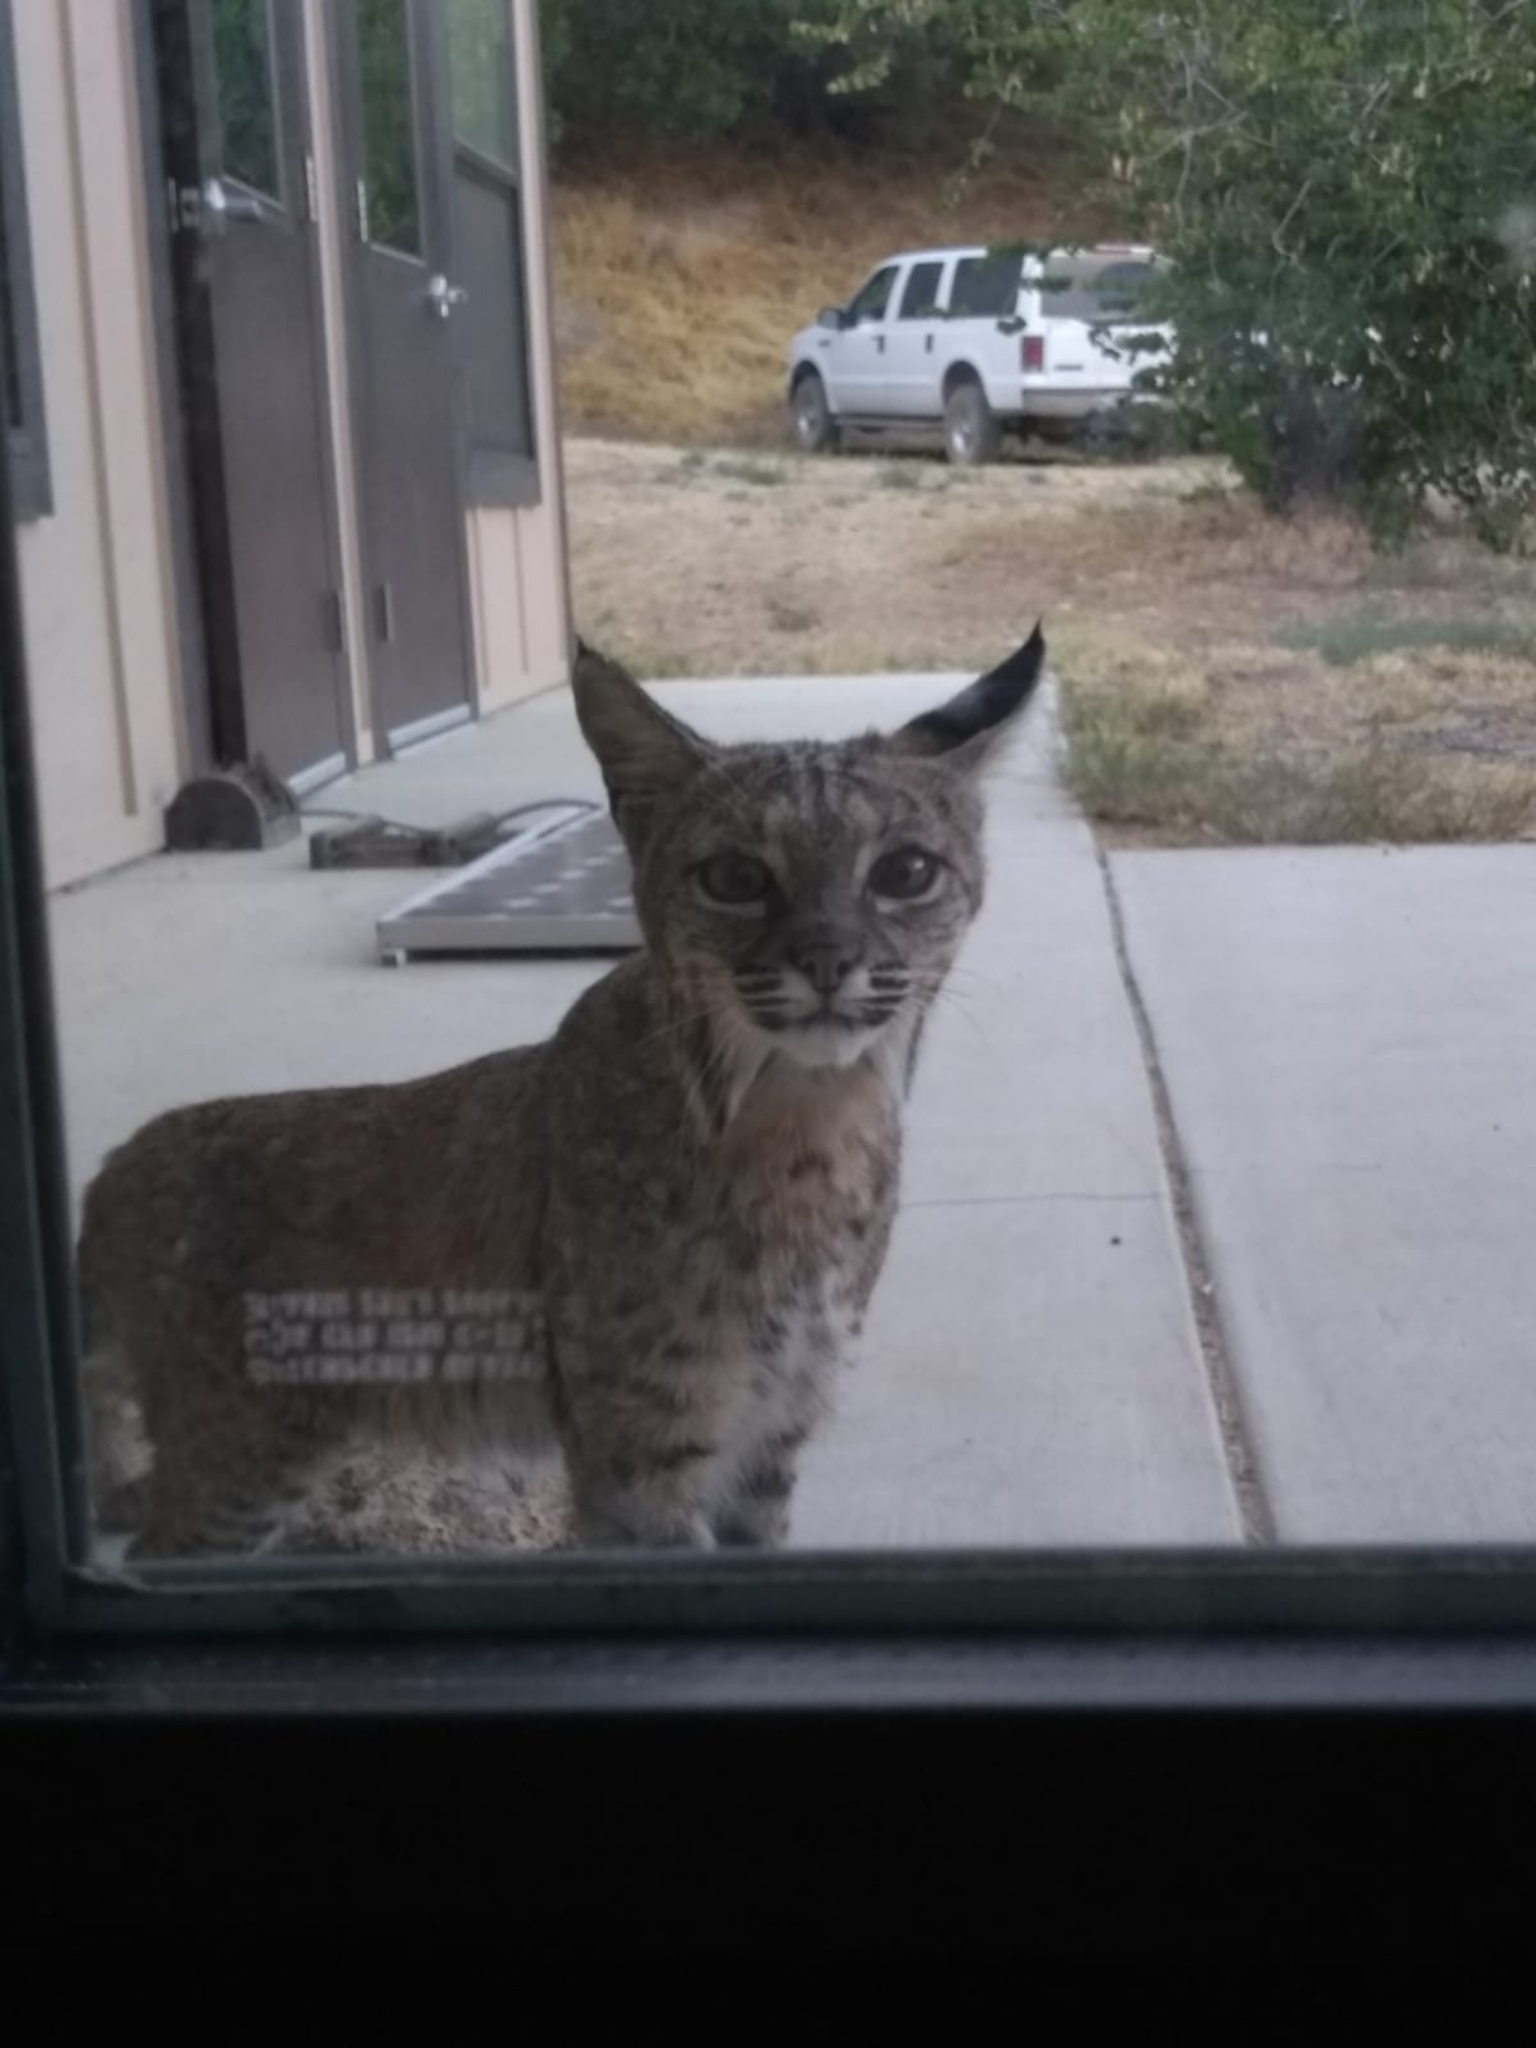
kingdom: Animalia
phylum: Chordata
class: Mammalia
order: Carnivora
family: Felidae
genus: Lynx
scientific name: Lynx rufus
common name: Bobcat
